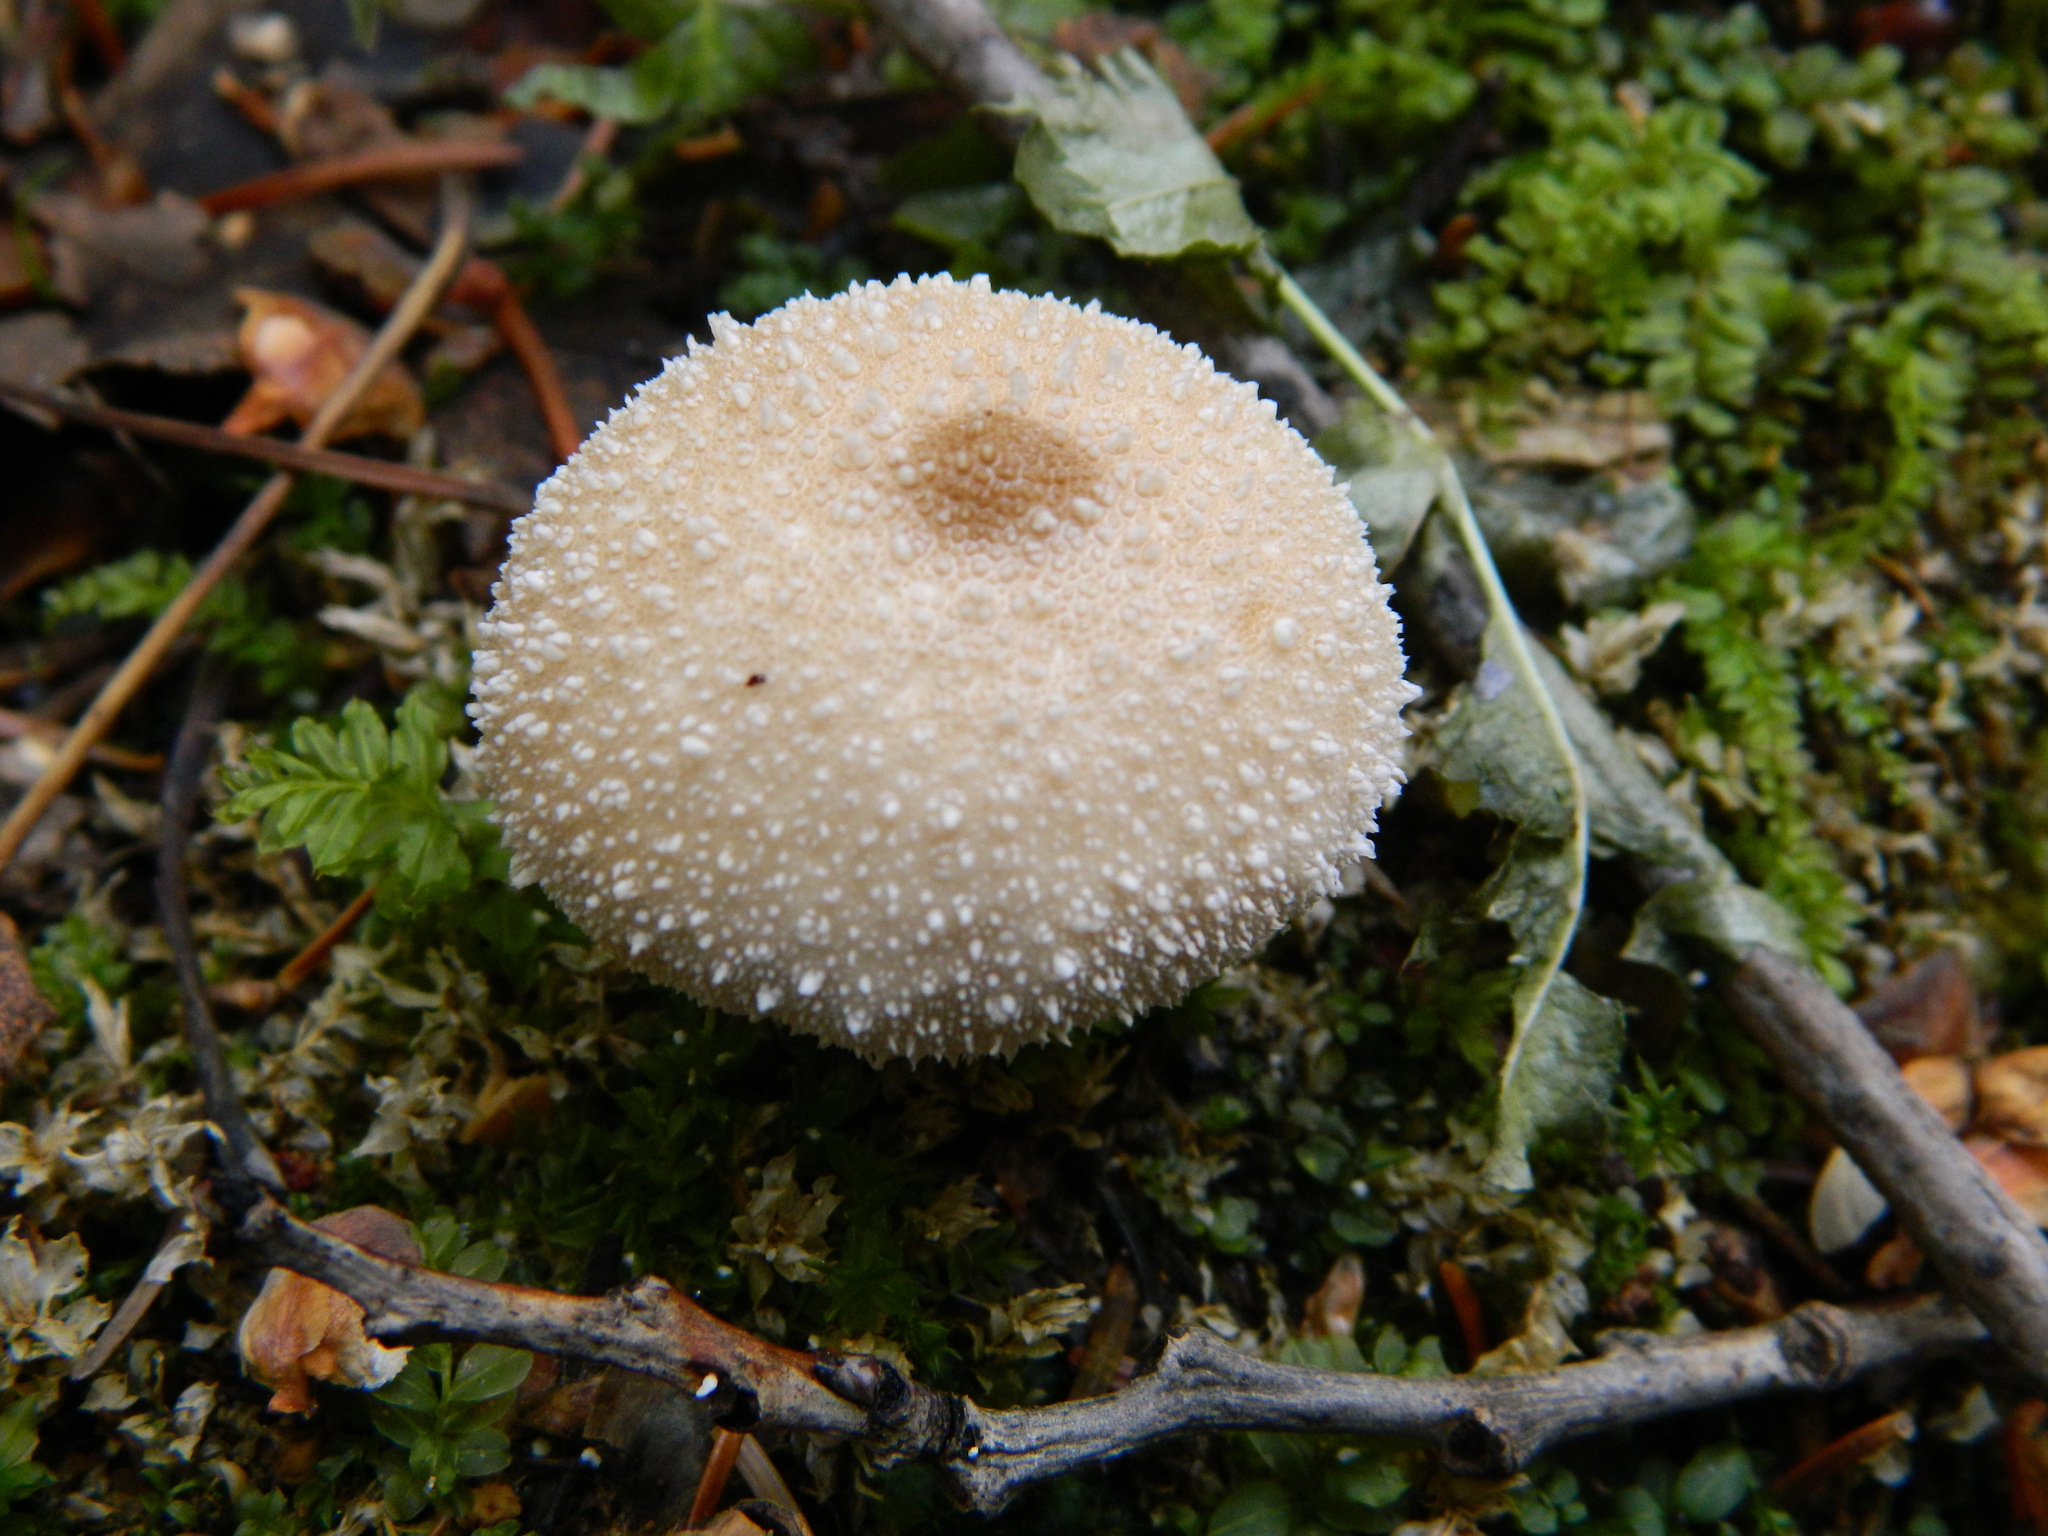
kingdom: Fungi
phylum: Basidiomycota
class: Agaricomycetes
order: Agaricales
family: Lycoperdaceae
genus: Lycoperdon
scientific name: Lycoperdon perlatum
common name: Common puffball
